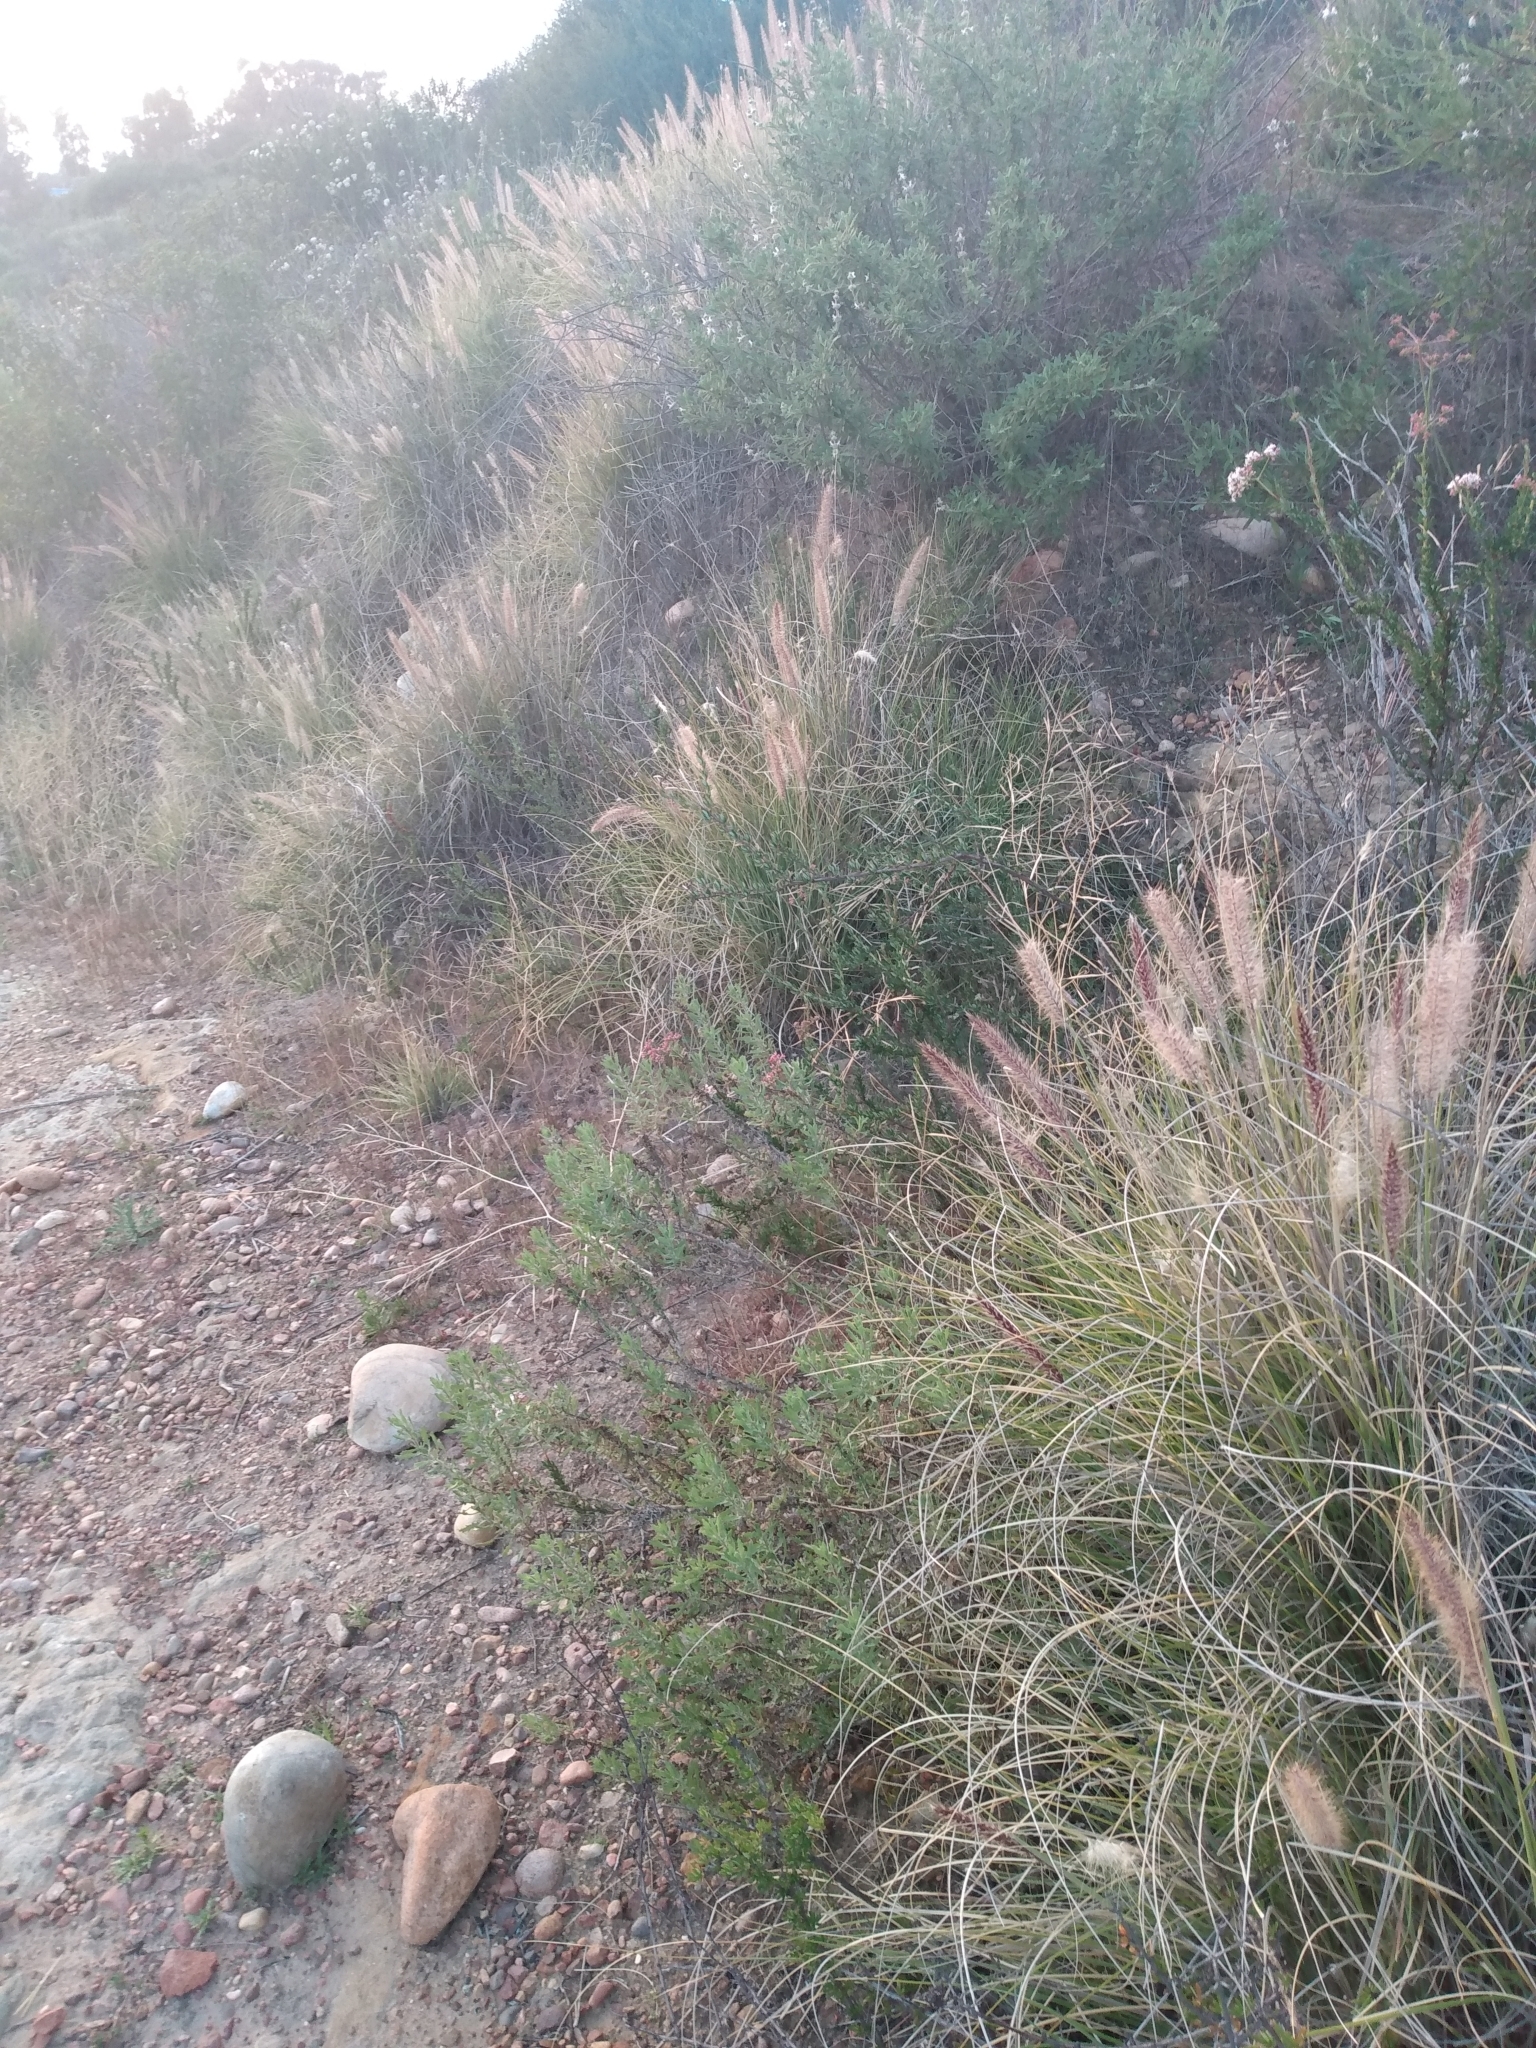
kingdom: Plantae
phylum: Tracheophyta
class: Liliopsida
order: Poales
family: Poaceae
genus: Cenchrus
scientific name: Cenchrus setaceus
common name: Crimson fountaingrass
